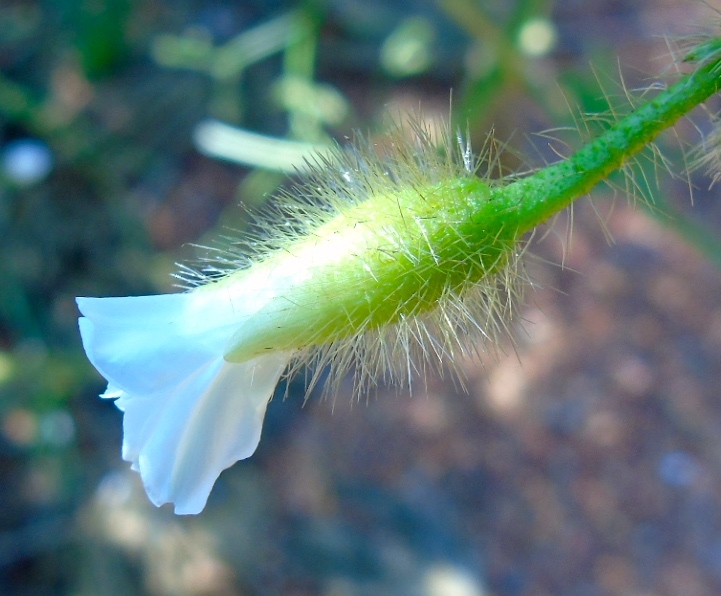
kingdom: Plantae
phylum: Tracheophyta
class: Magnoliopsida
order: Solanales
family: Convolvulaceae
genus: Distimake
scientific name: Distimake aegyptius
